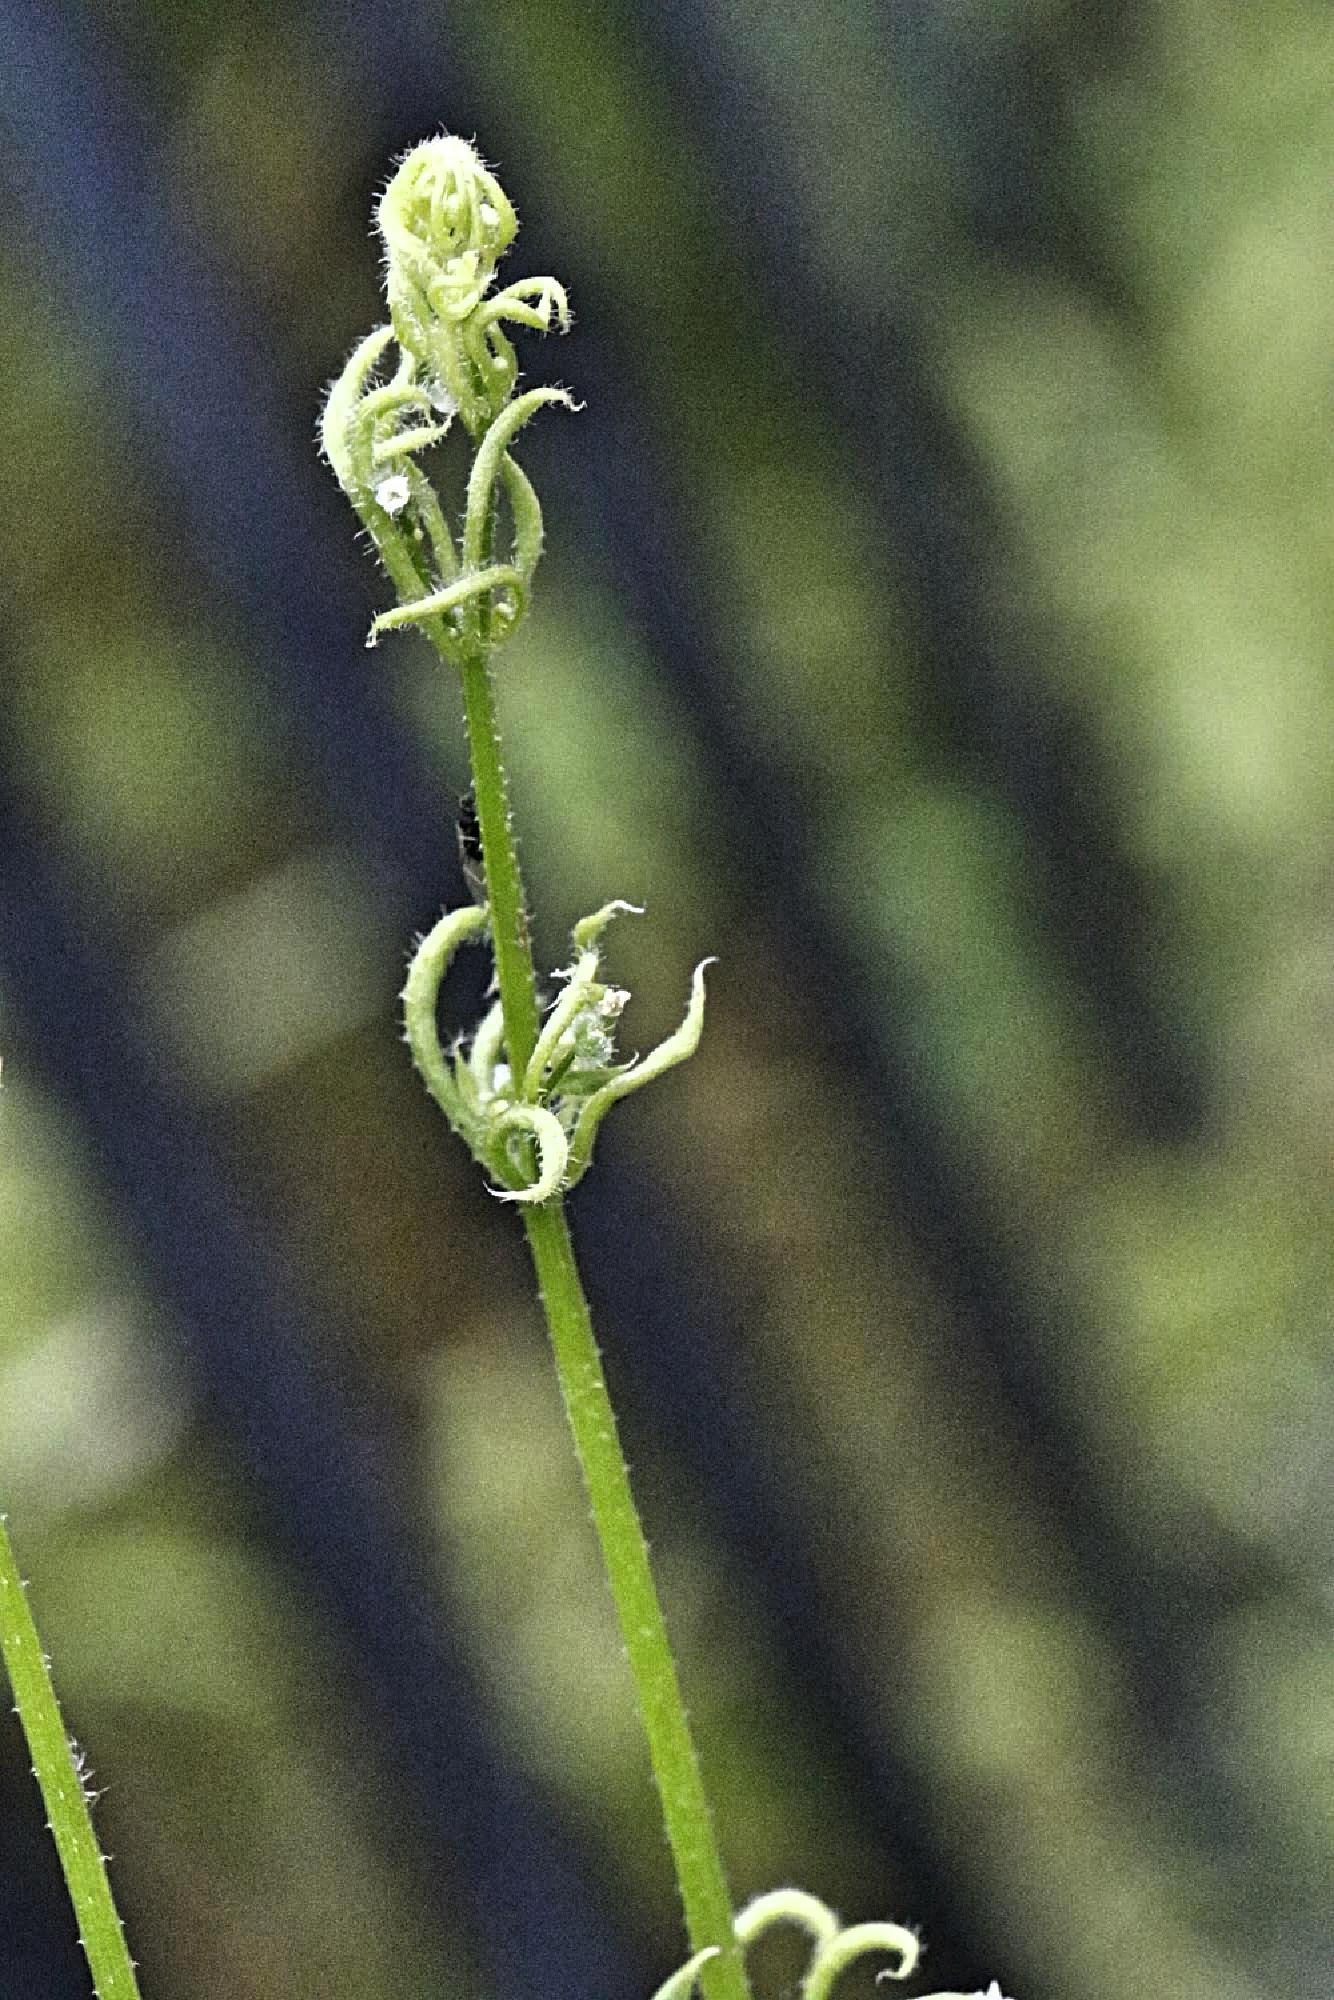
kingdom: Animalia
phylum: Arthropoda
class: Arachnida
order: Trombidiformes
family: Eriophyidae
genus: Cecidophyes
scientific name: Cecidophyes rouhollahi
